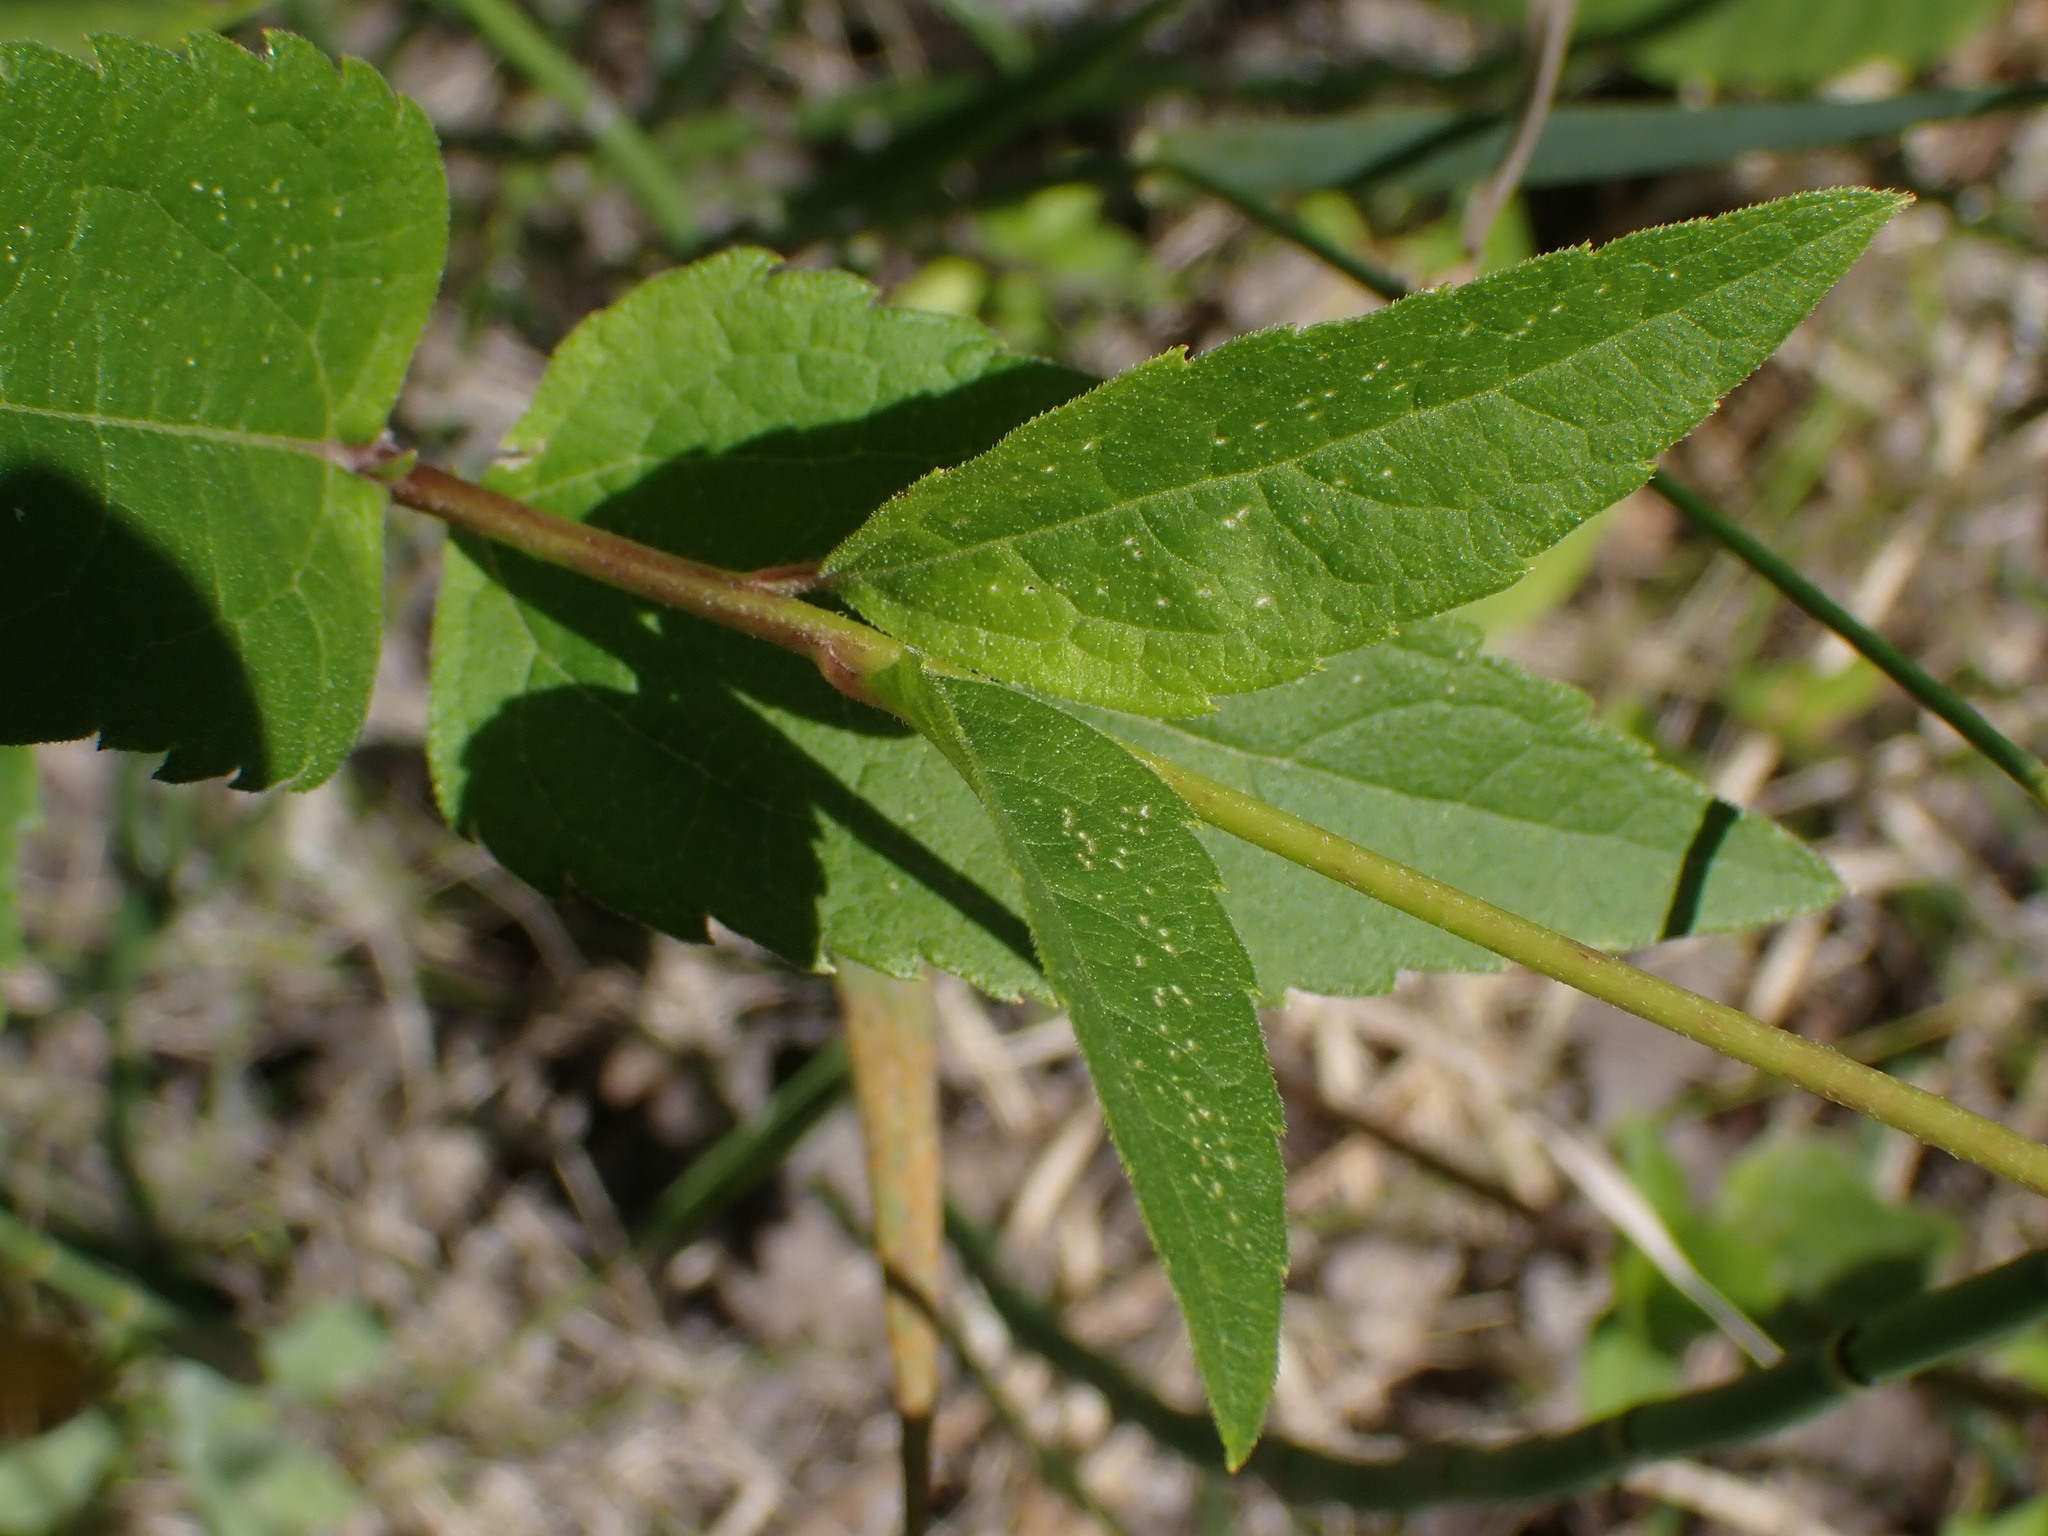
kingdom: Plantae
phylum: Tracheophyta
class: Magnoliopsida
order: Asterales
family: Asteraceae
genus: Heliopsis
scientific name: Heliopsis helianthoides
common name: False sunflower
